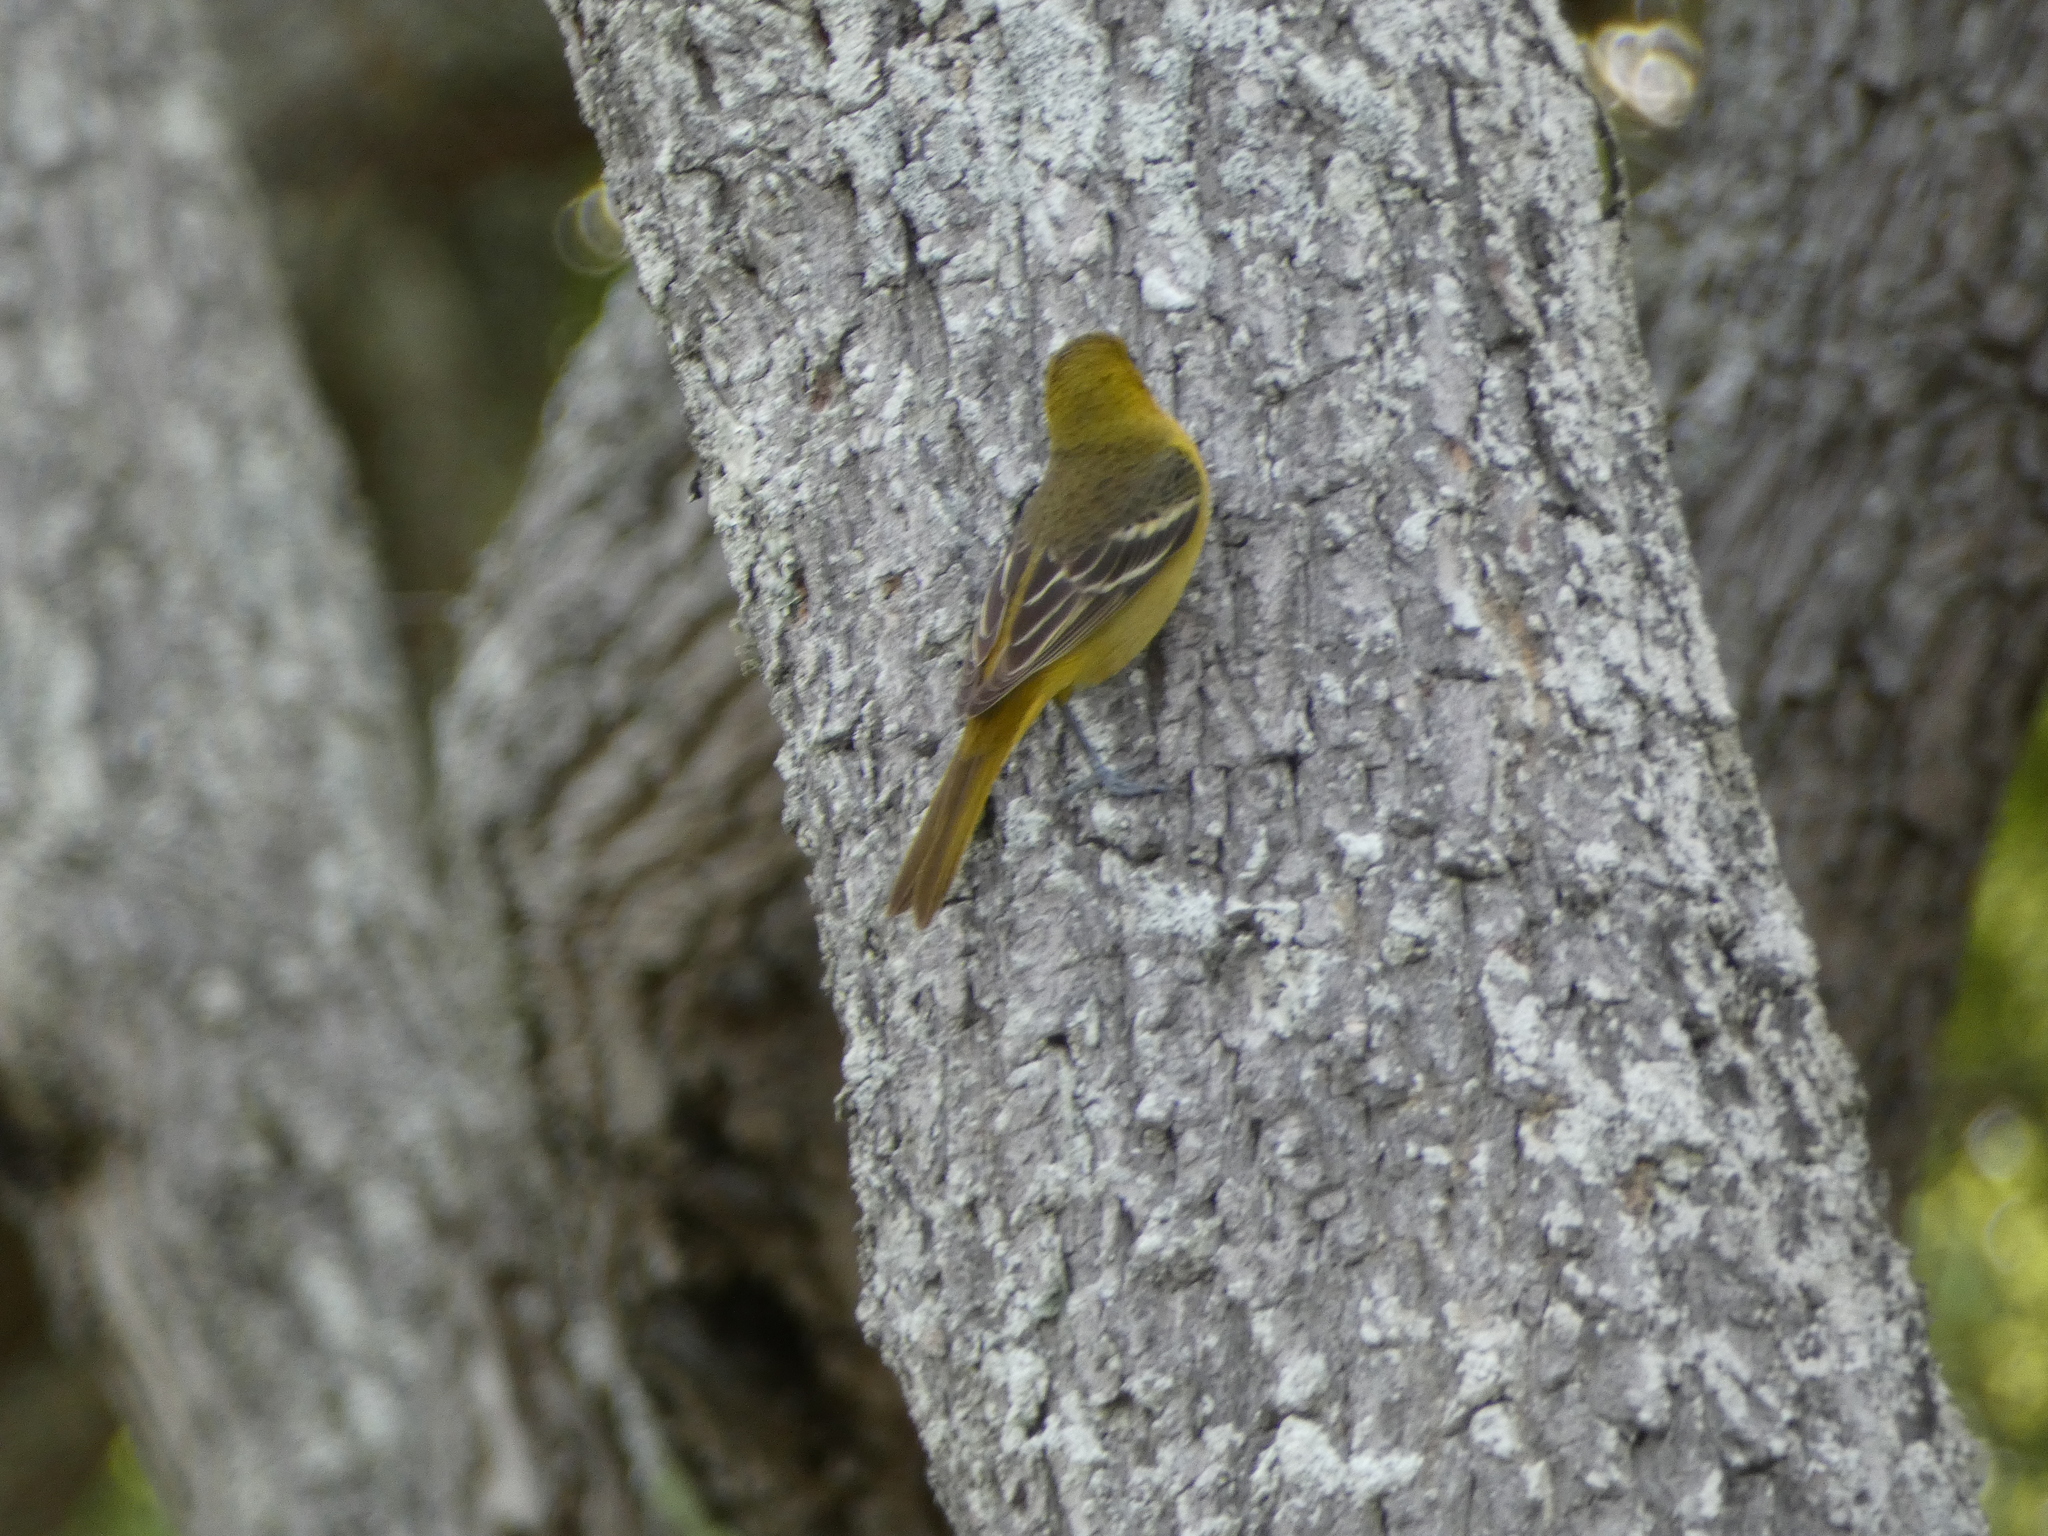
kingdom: Animalia
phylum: Chordata
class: Aves
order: Passeriformes
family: Icteridae
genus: Icterus
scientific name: Icterus spurius
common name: Orchard oriole
